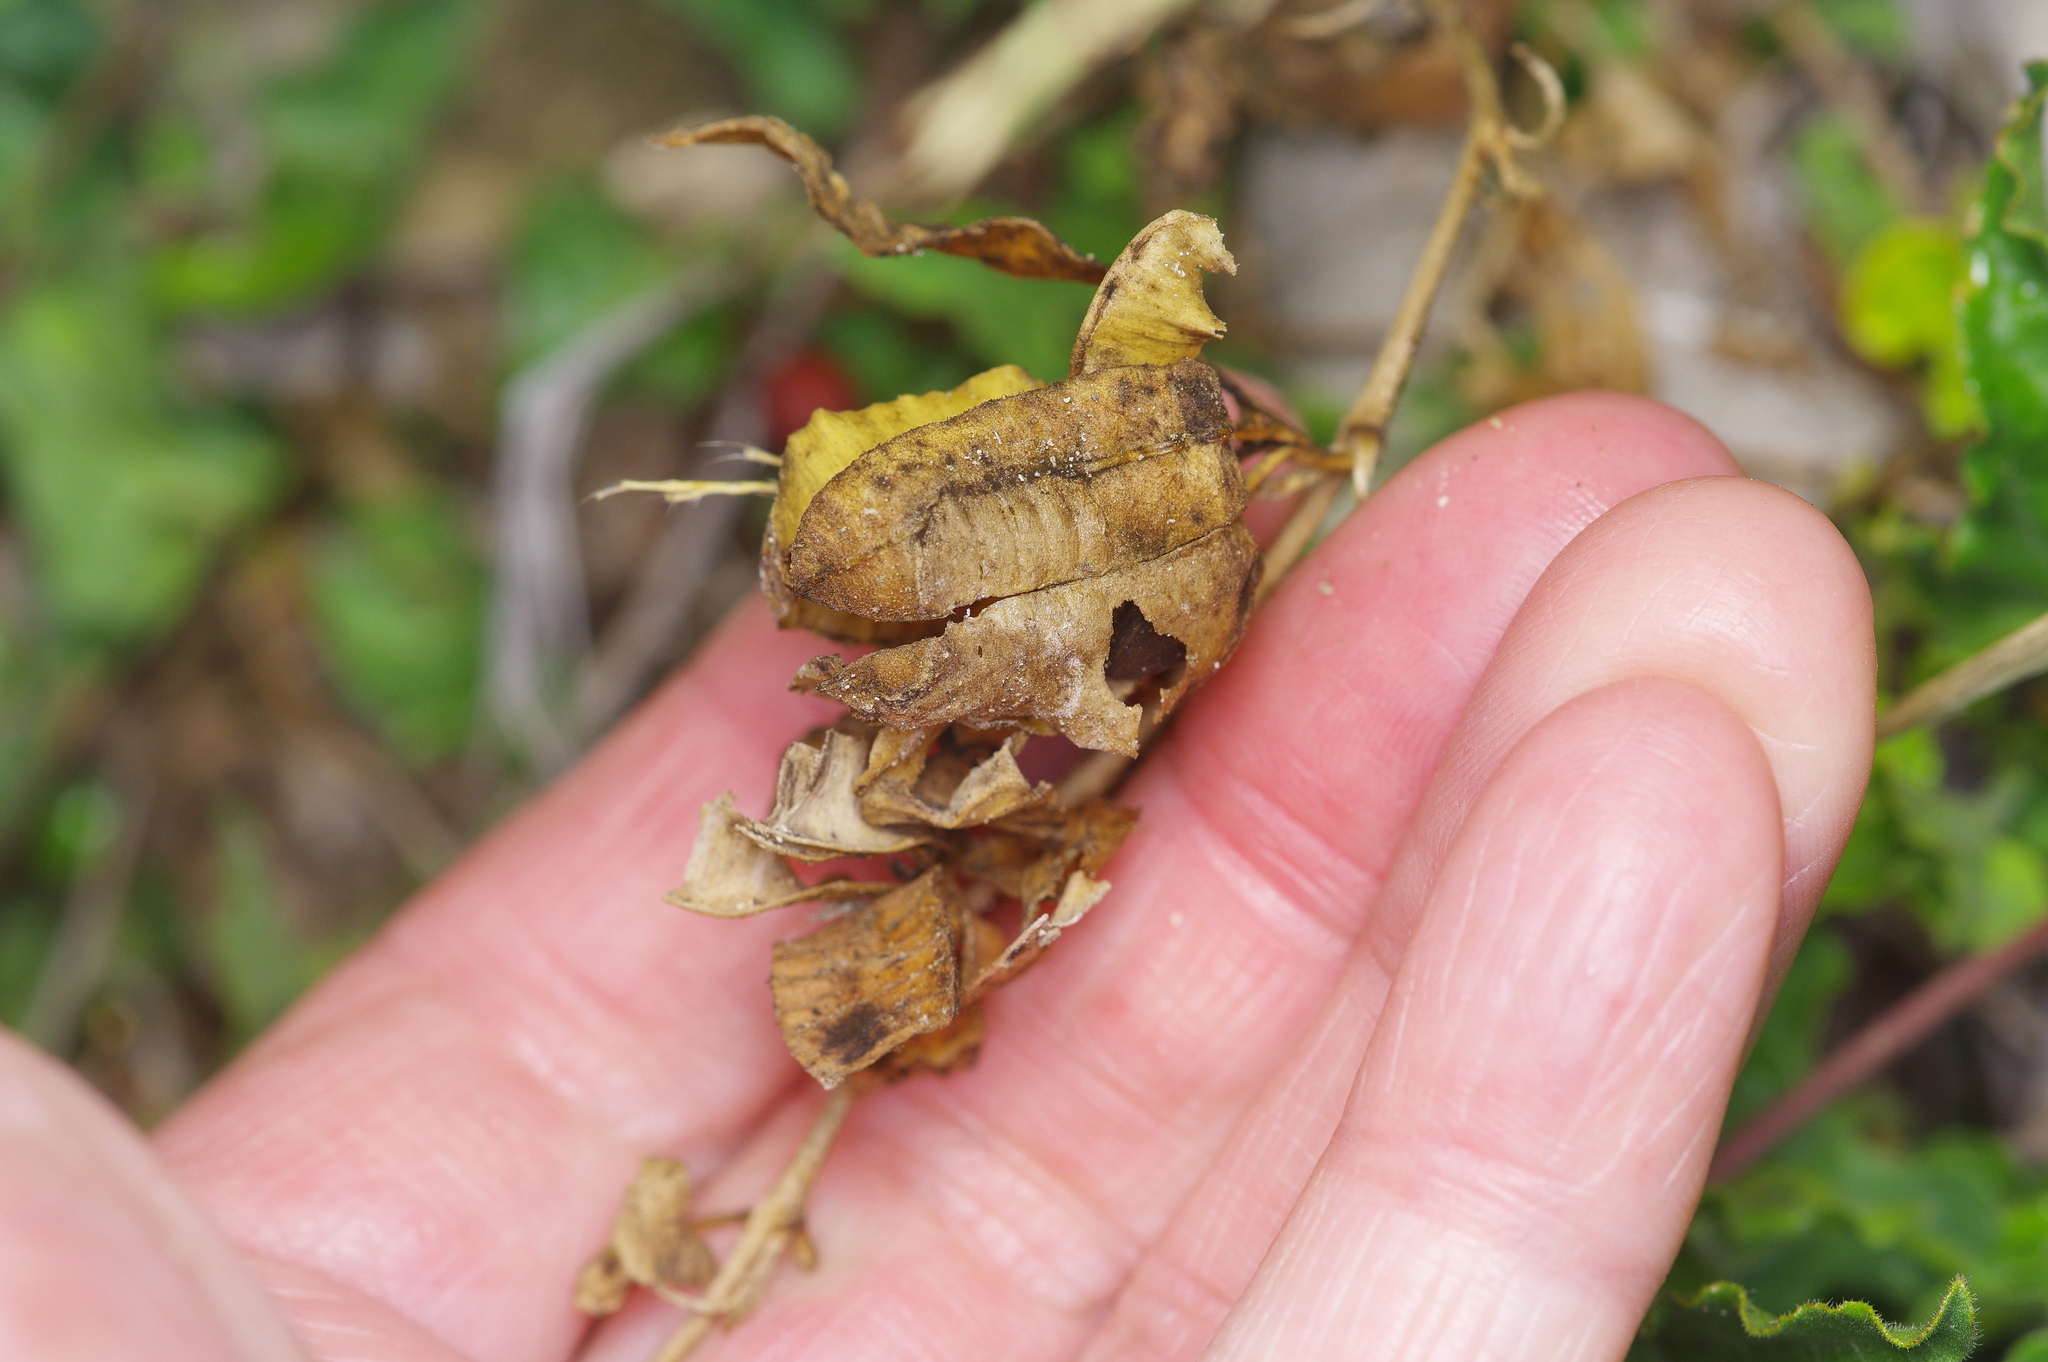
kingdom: Plantae
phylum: Tracheophyta
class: Magnoliopsida
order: Piperales
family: Aristolochiaceae
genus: Aristolochia
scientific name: Aristolochia coryi
